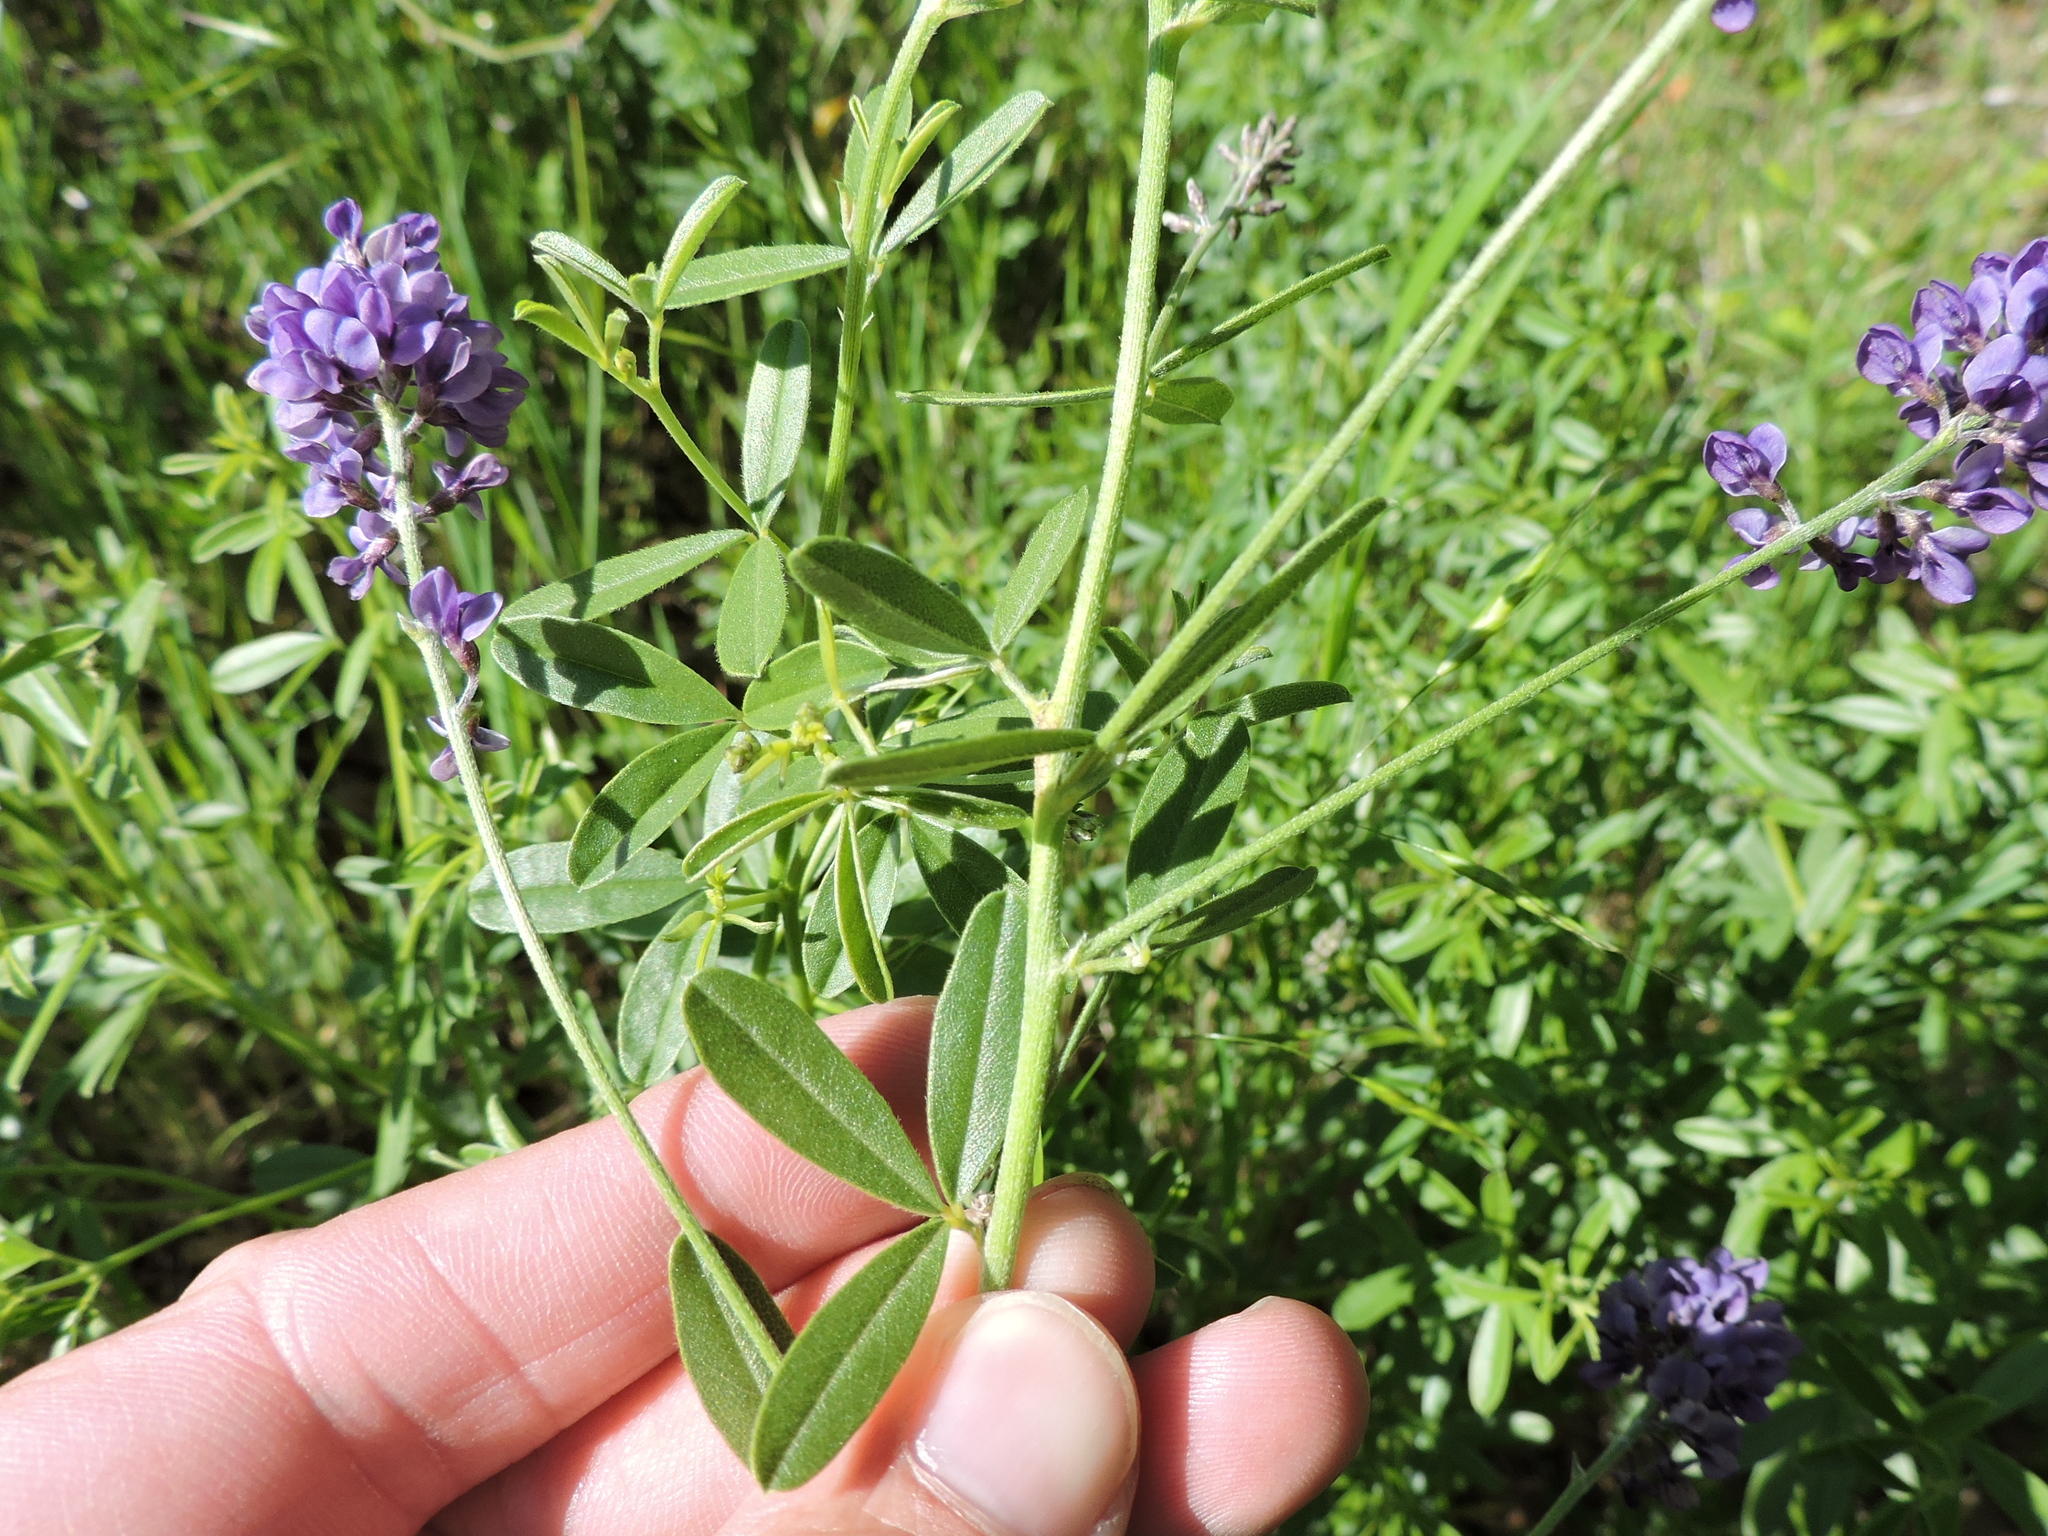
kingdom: Plantae
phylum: Tracheophyta
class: Magnoliopsida
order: Fabales
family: Fabaceae
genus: Pediomelum
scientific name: Pediomelum tenuiflorum
